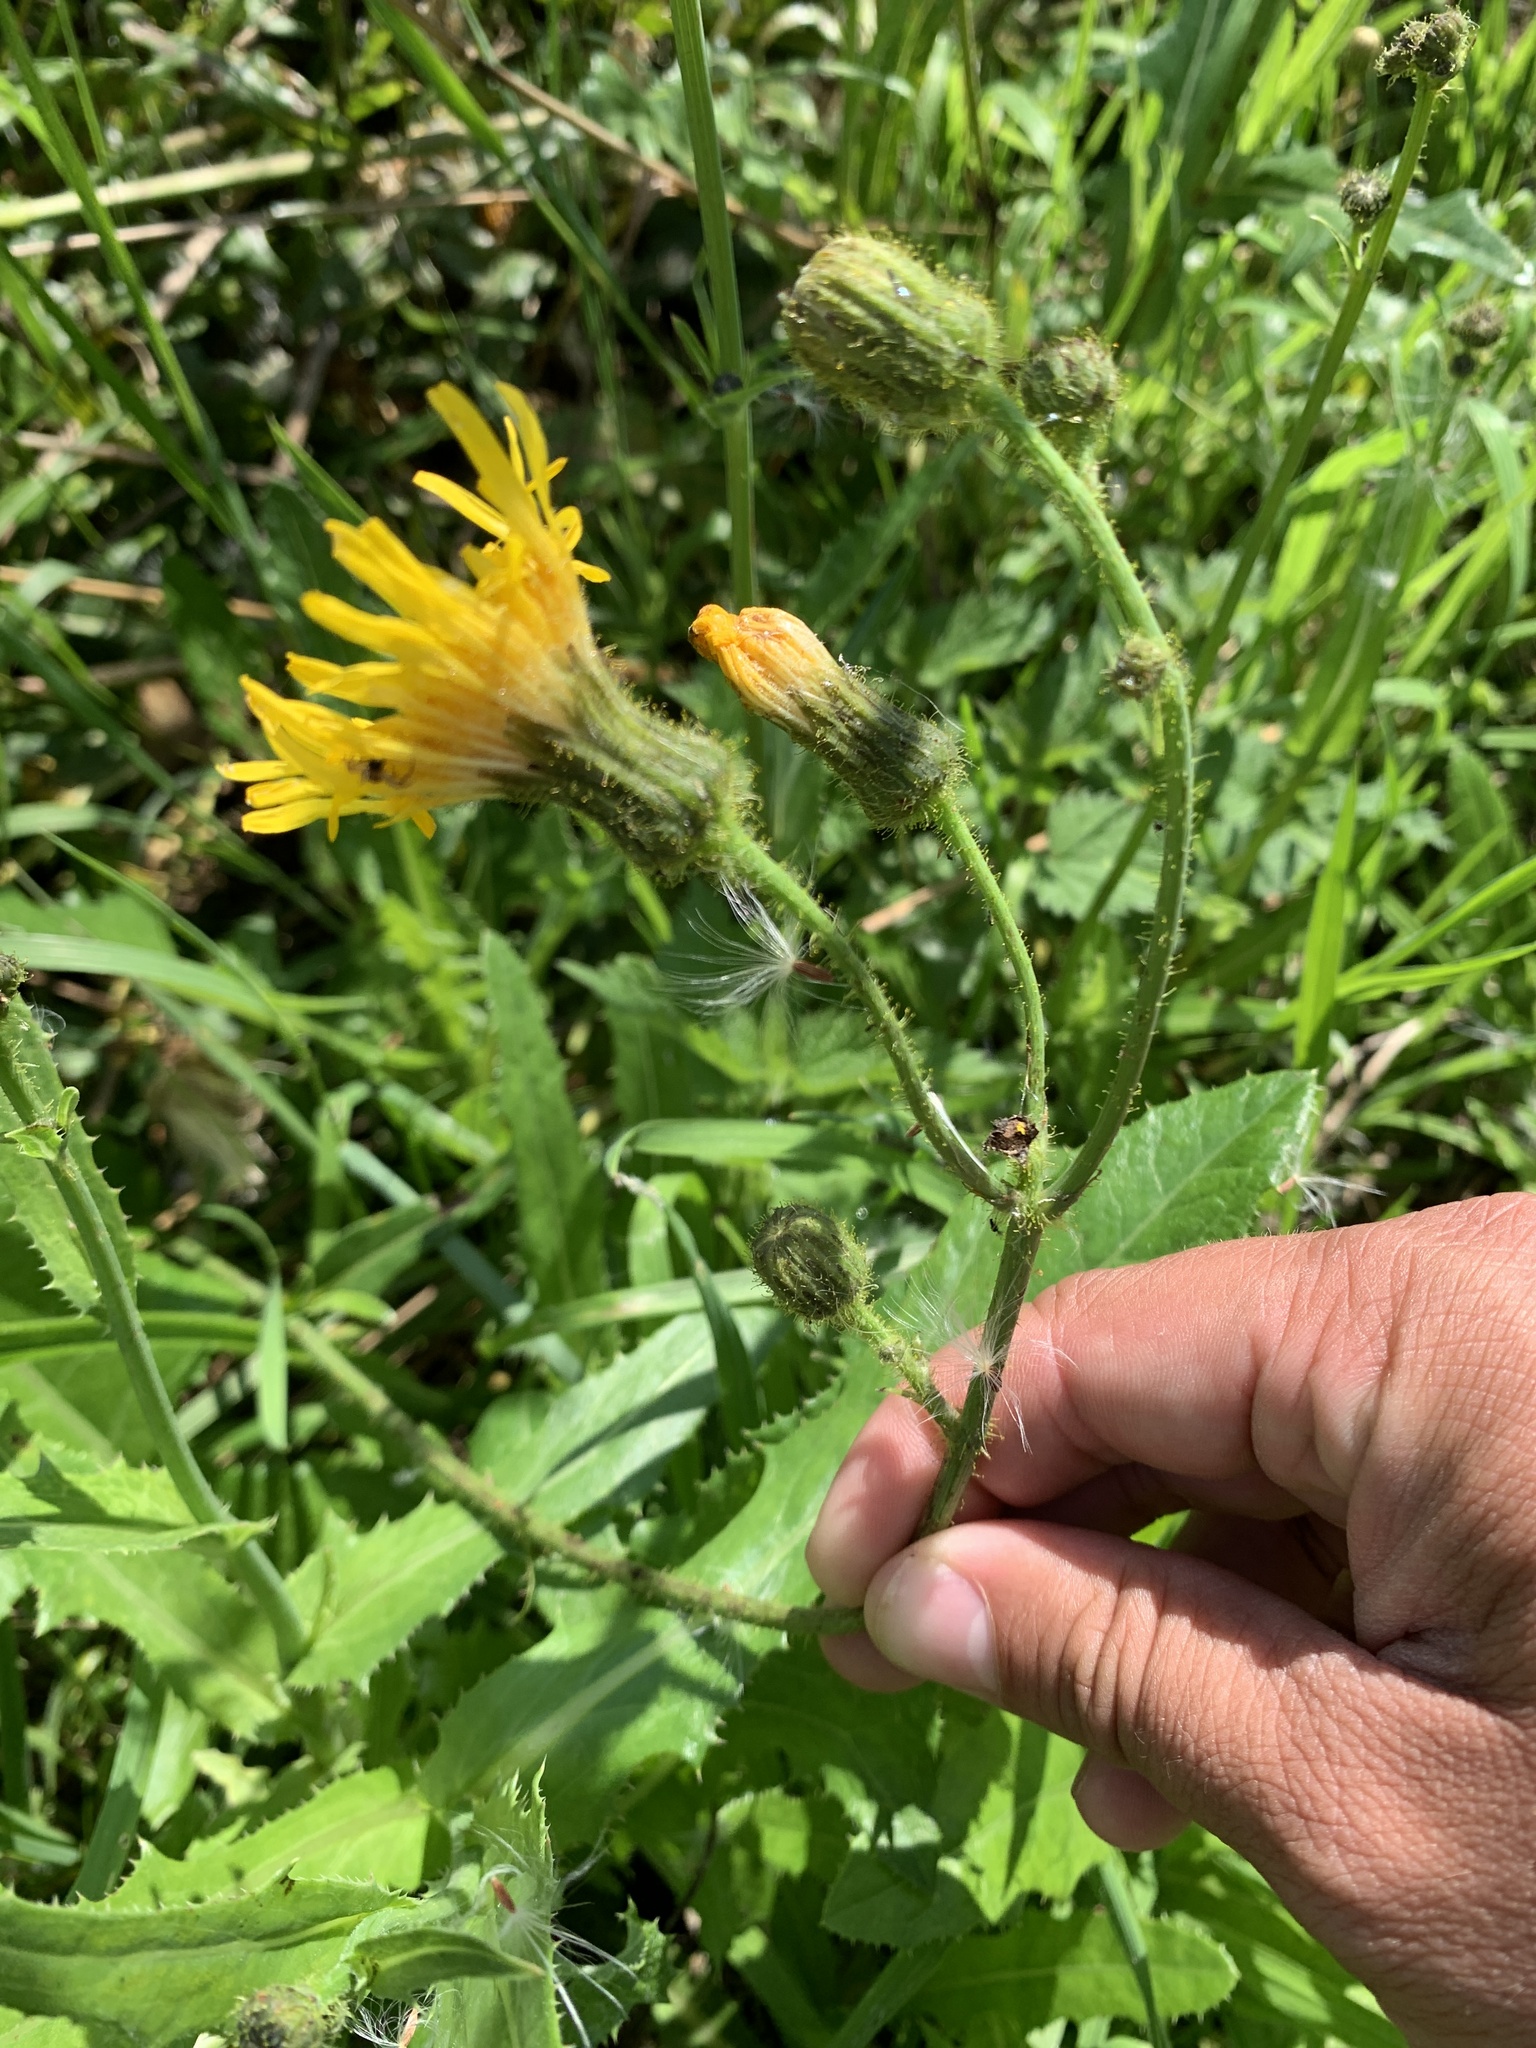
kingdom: Plantae
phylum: Tracheophyta
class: Magnoliopsida
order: Asterales
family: Asteraceae
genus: Sonchus
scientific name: Sonchus arvensis
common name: Perennial sow-thistle
